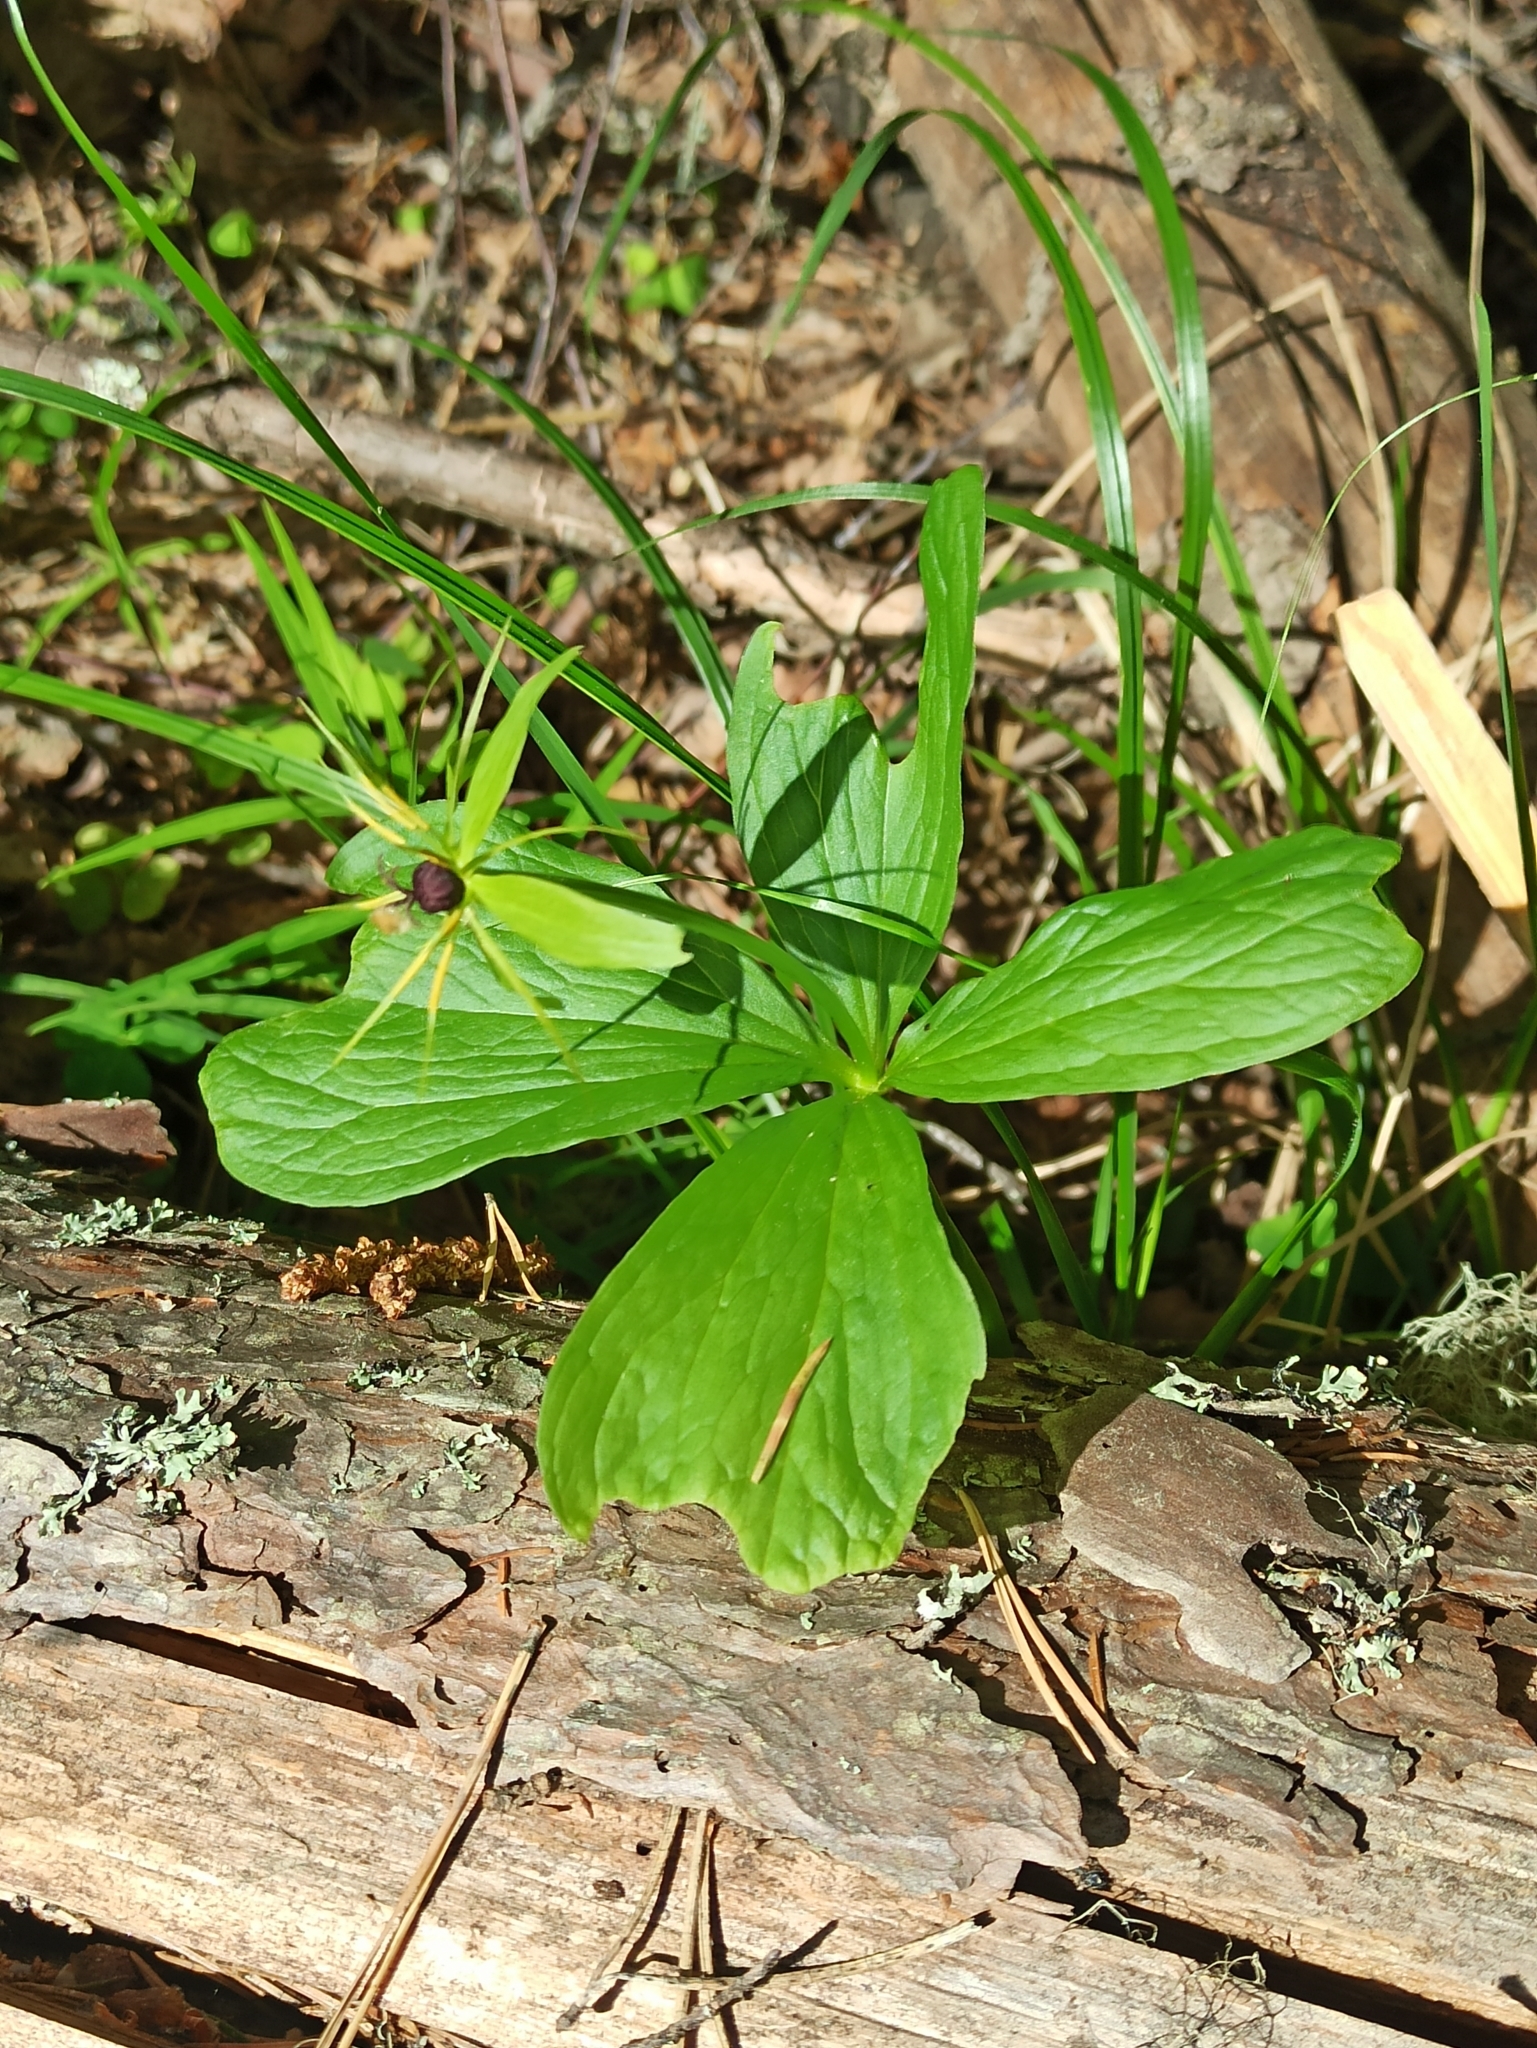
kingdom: Plantae
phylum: Tracheophyta
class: Liliopsida
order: Liliales
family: Melanthiaceae
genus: Paris
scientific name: Paris quadrifolia
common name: Herb-paris
